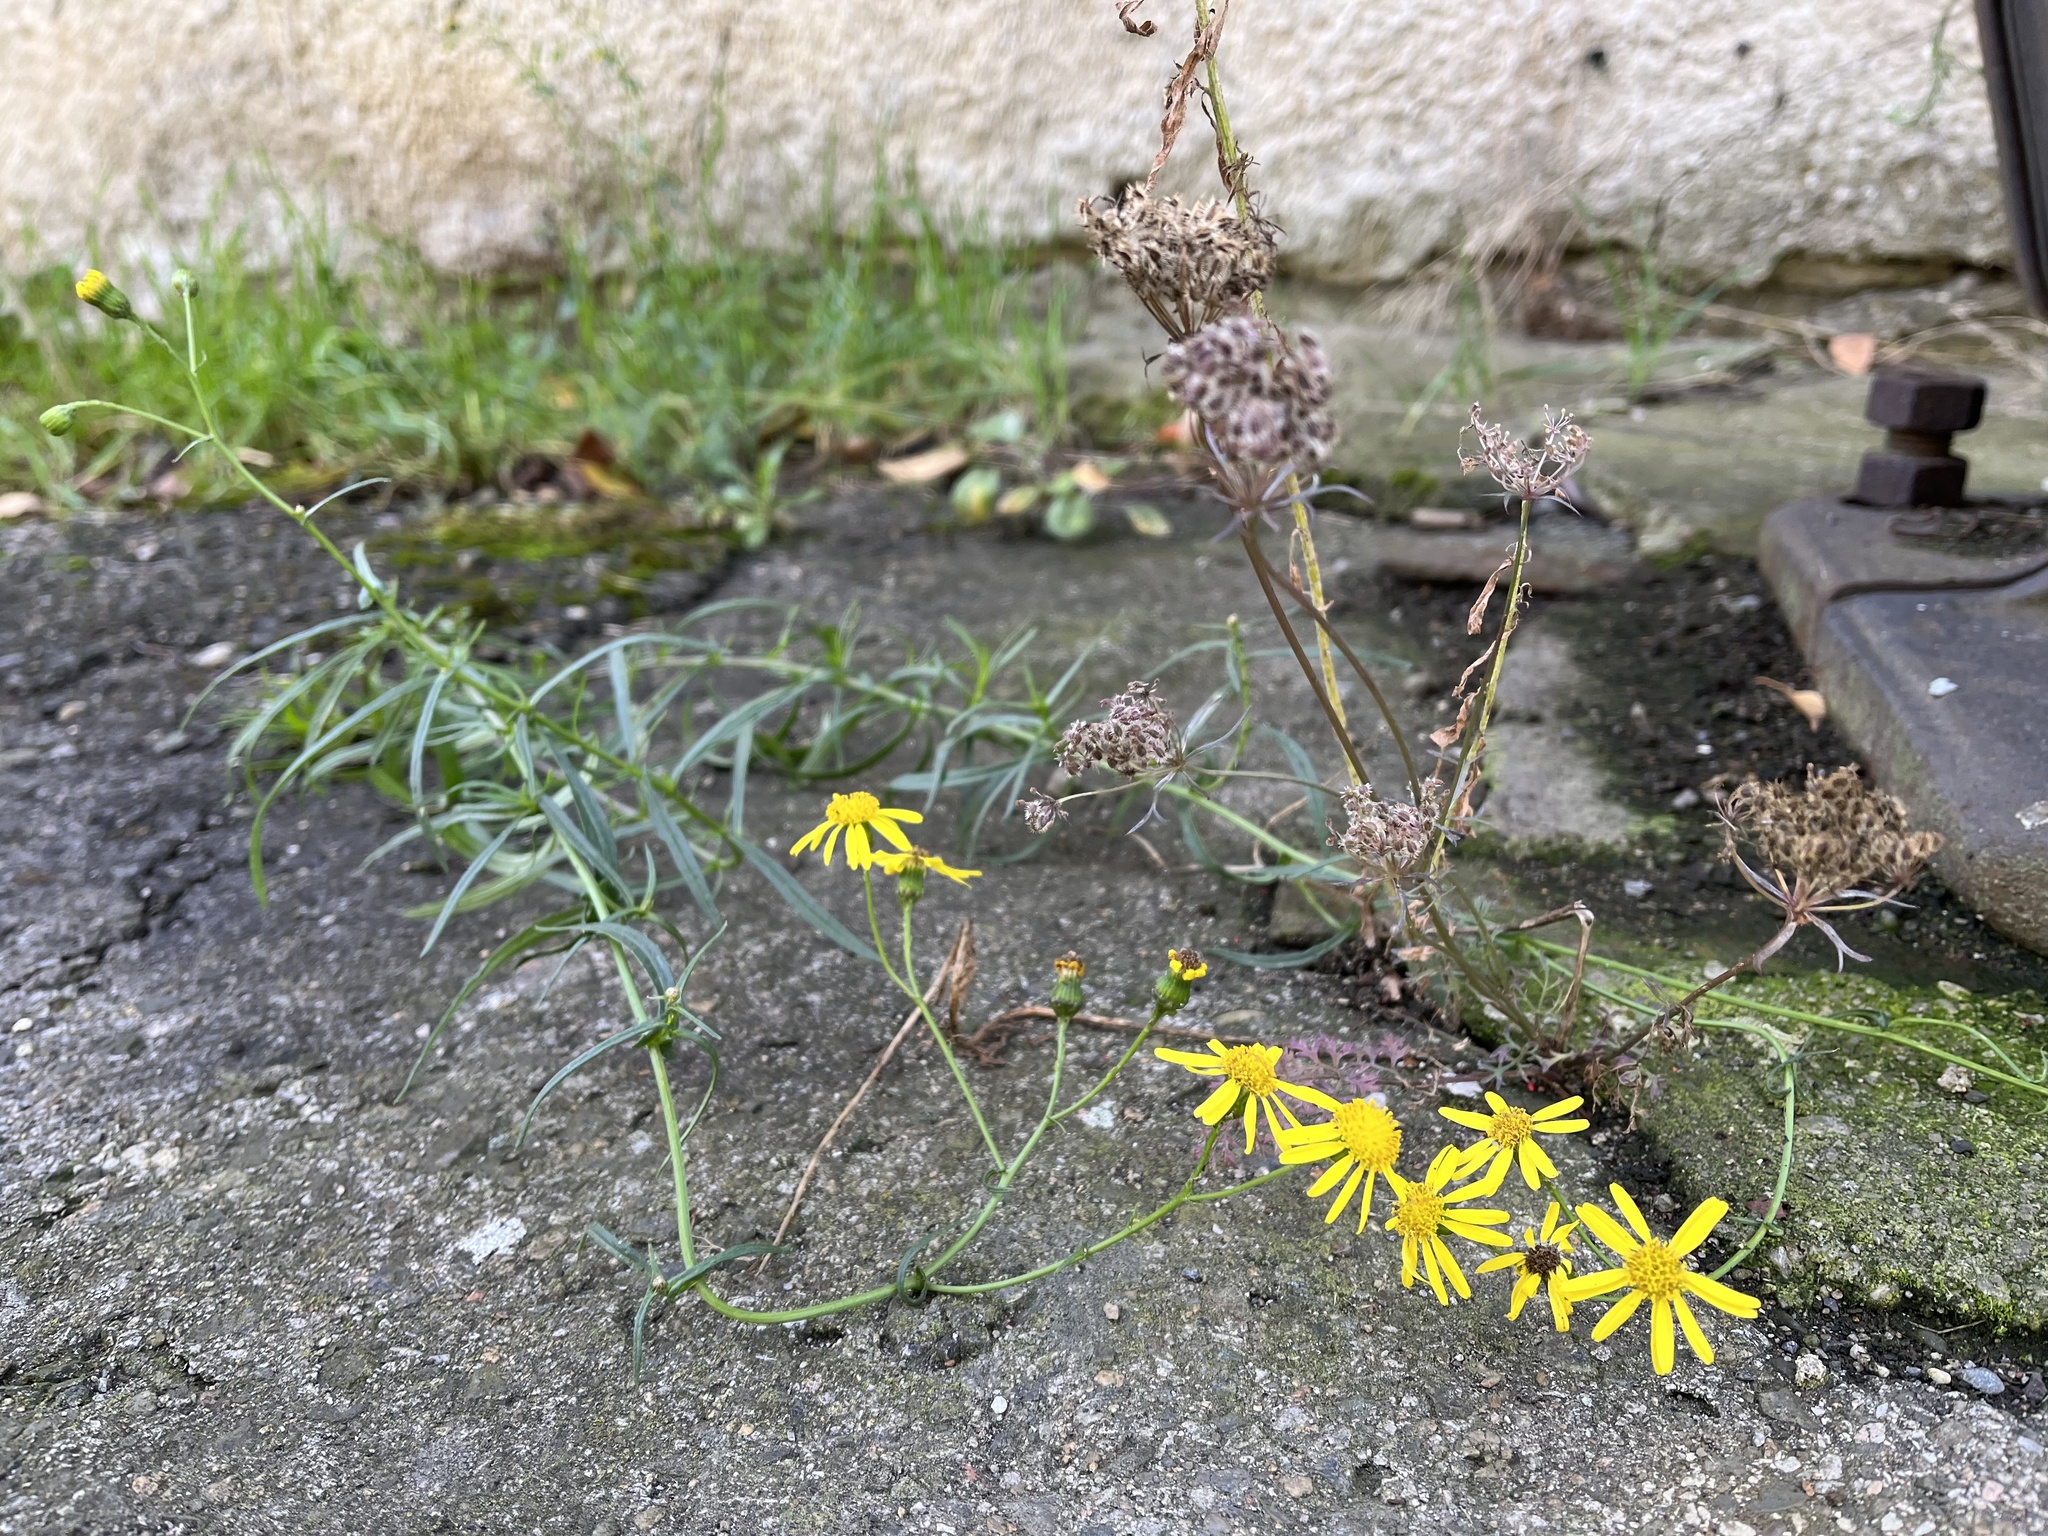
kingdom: Plantae
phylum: Tracheophyta
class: Magnoliopsida
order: Asterales
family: Asteraceae
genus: Senecio
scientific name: Senecio inaequidens
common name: Narrow-leaved ragwort
